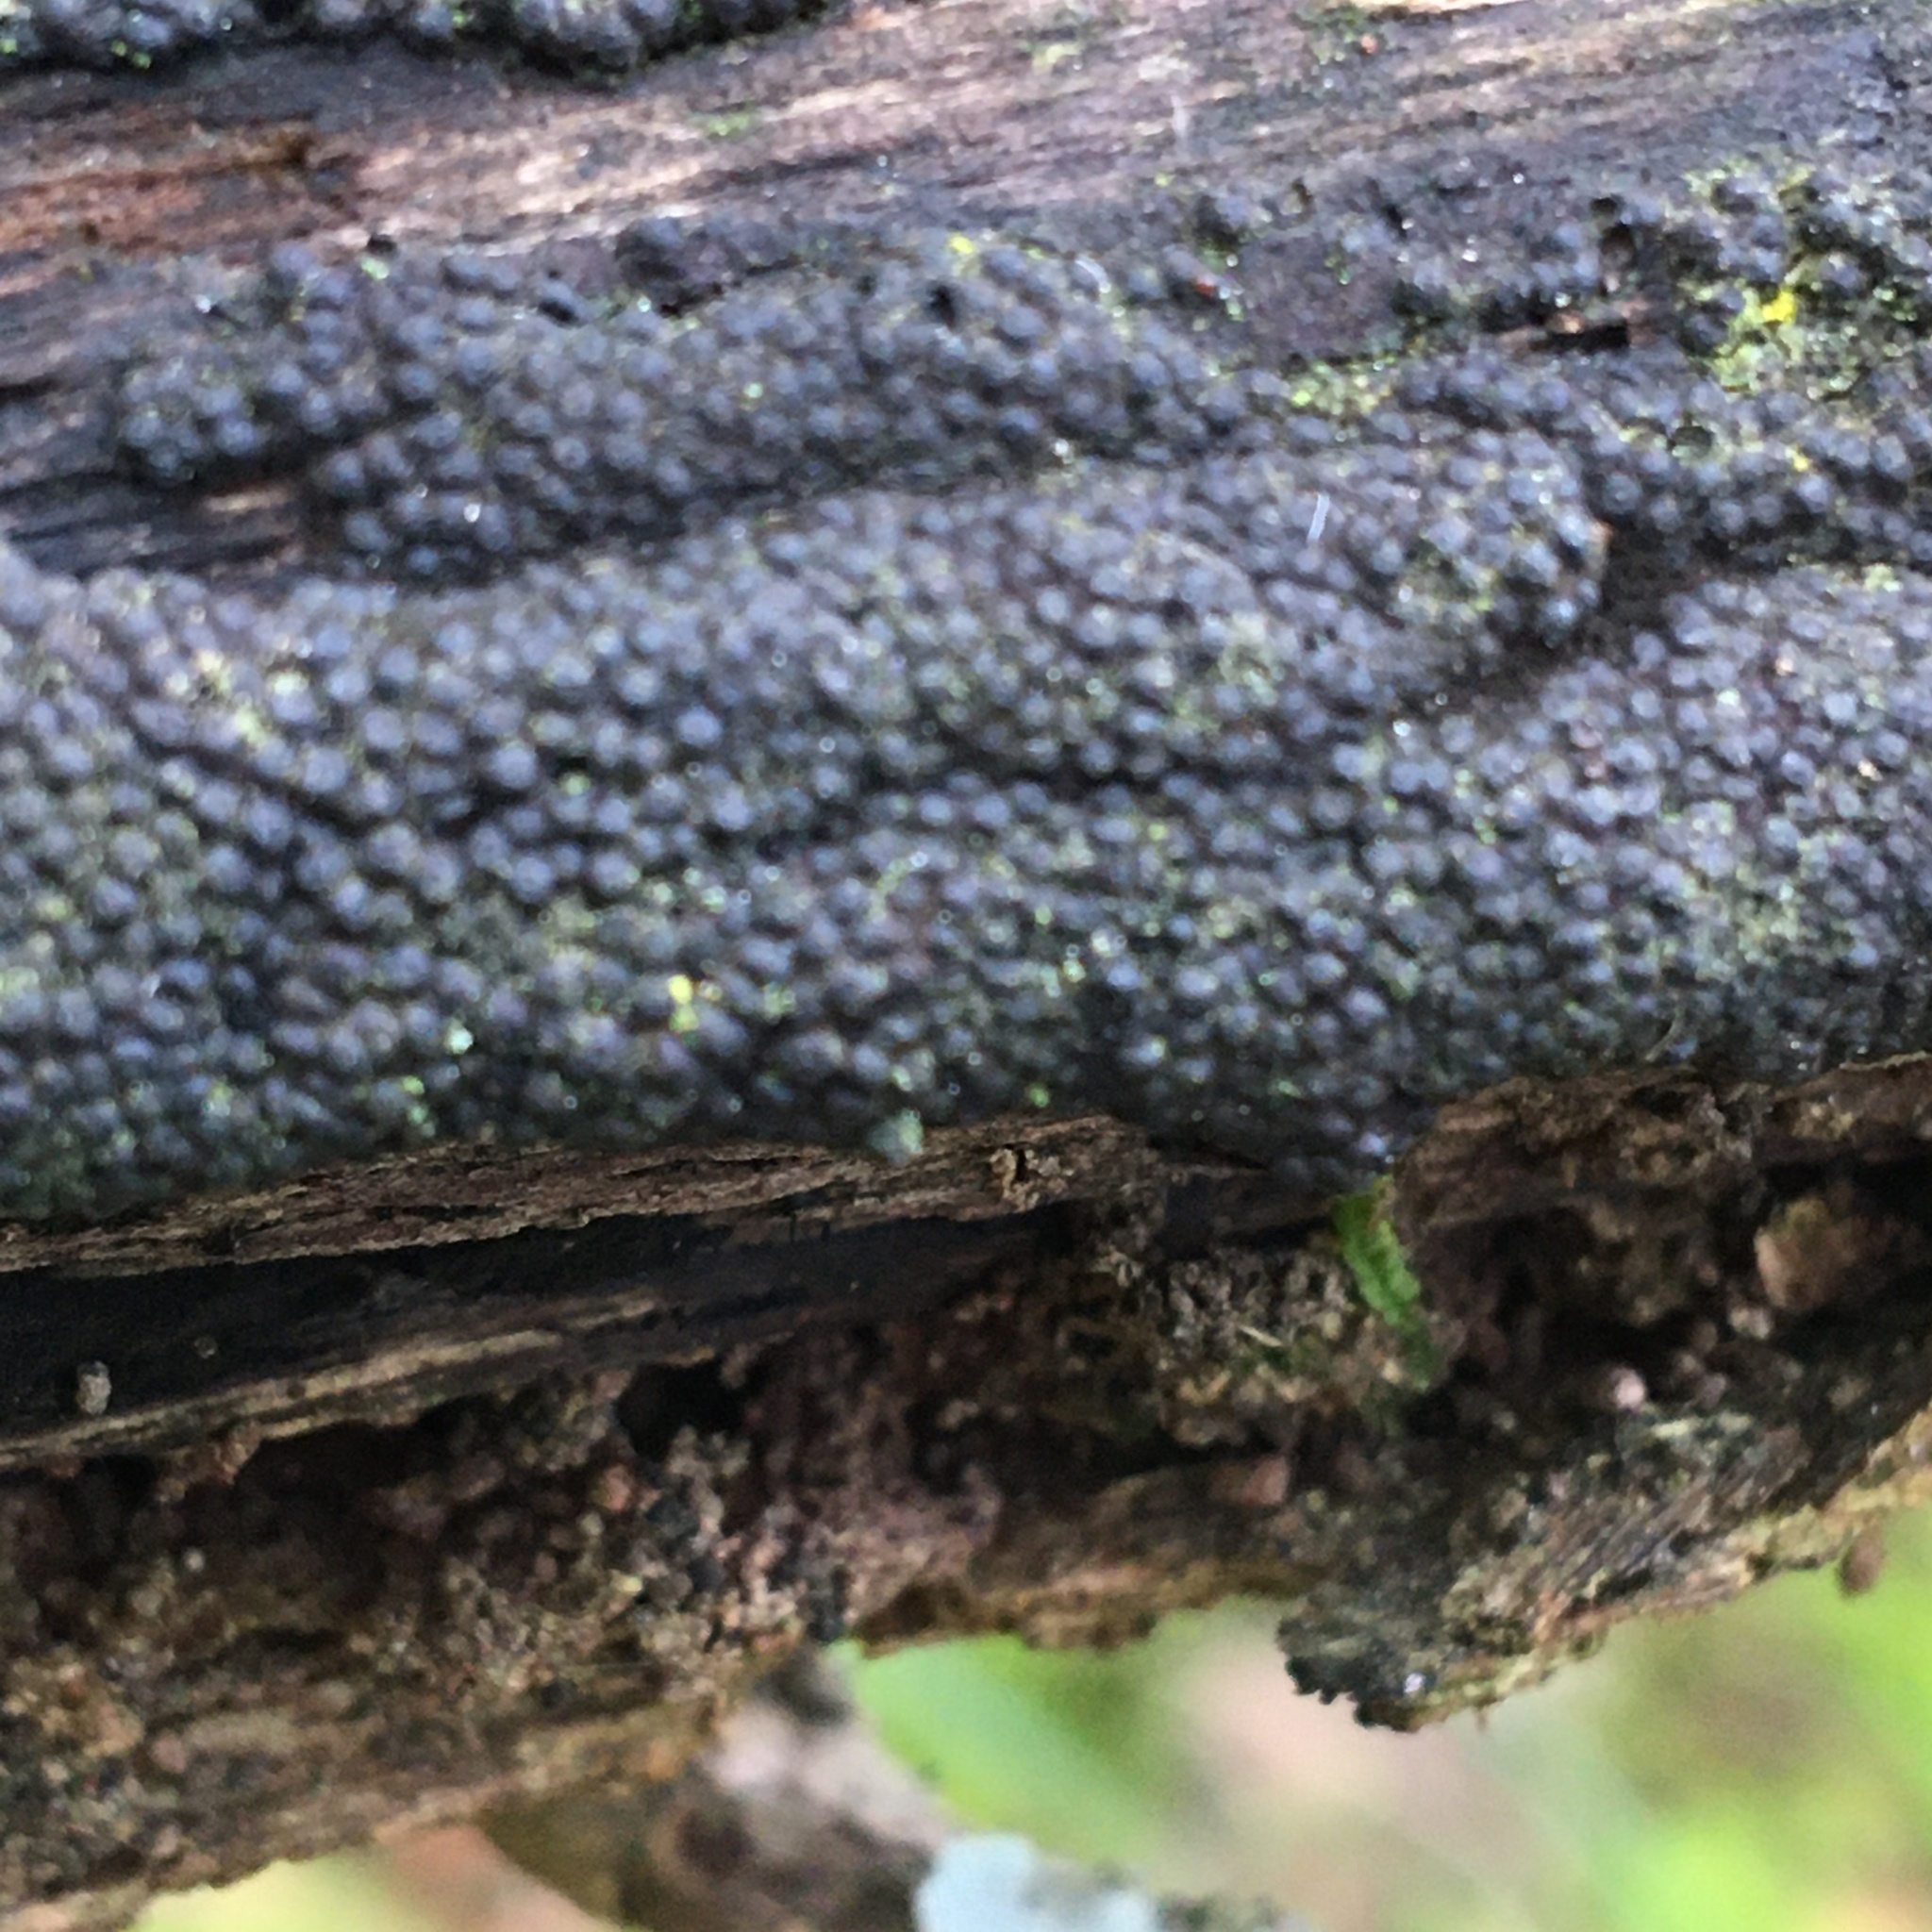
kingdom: Fungi
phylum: Ascomycota
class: Sordariomycetes
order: Xylariales
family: Hypoxylaceae
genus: Annulohypoxylon
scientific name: Annulohypoxylon bovei
